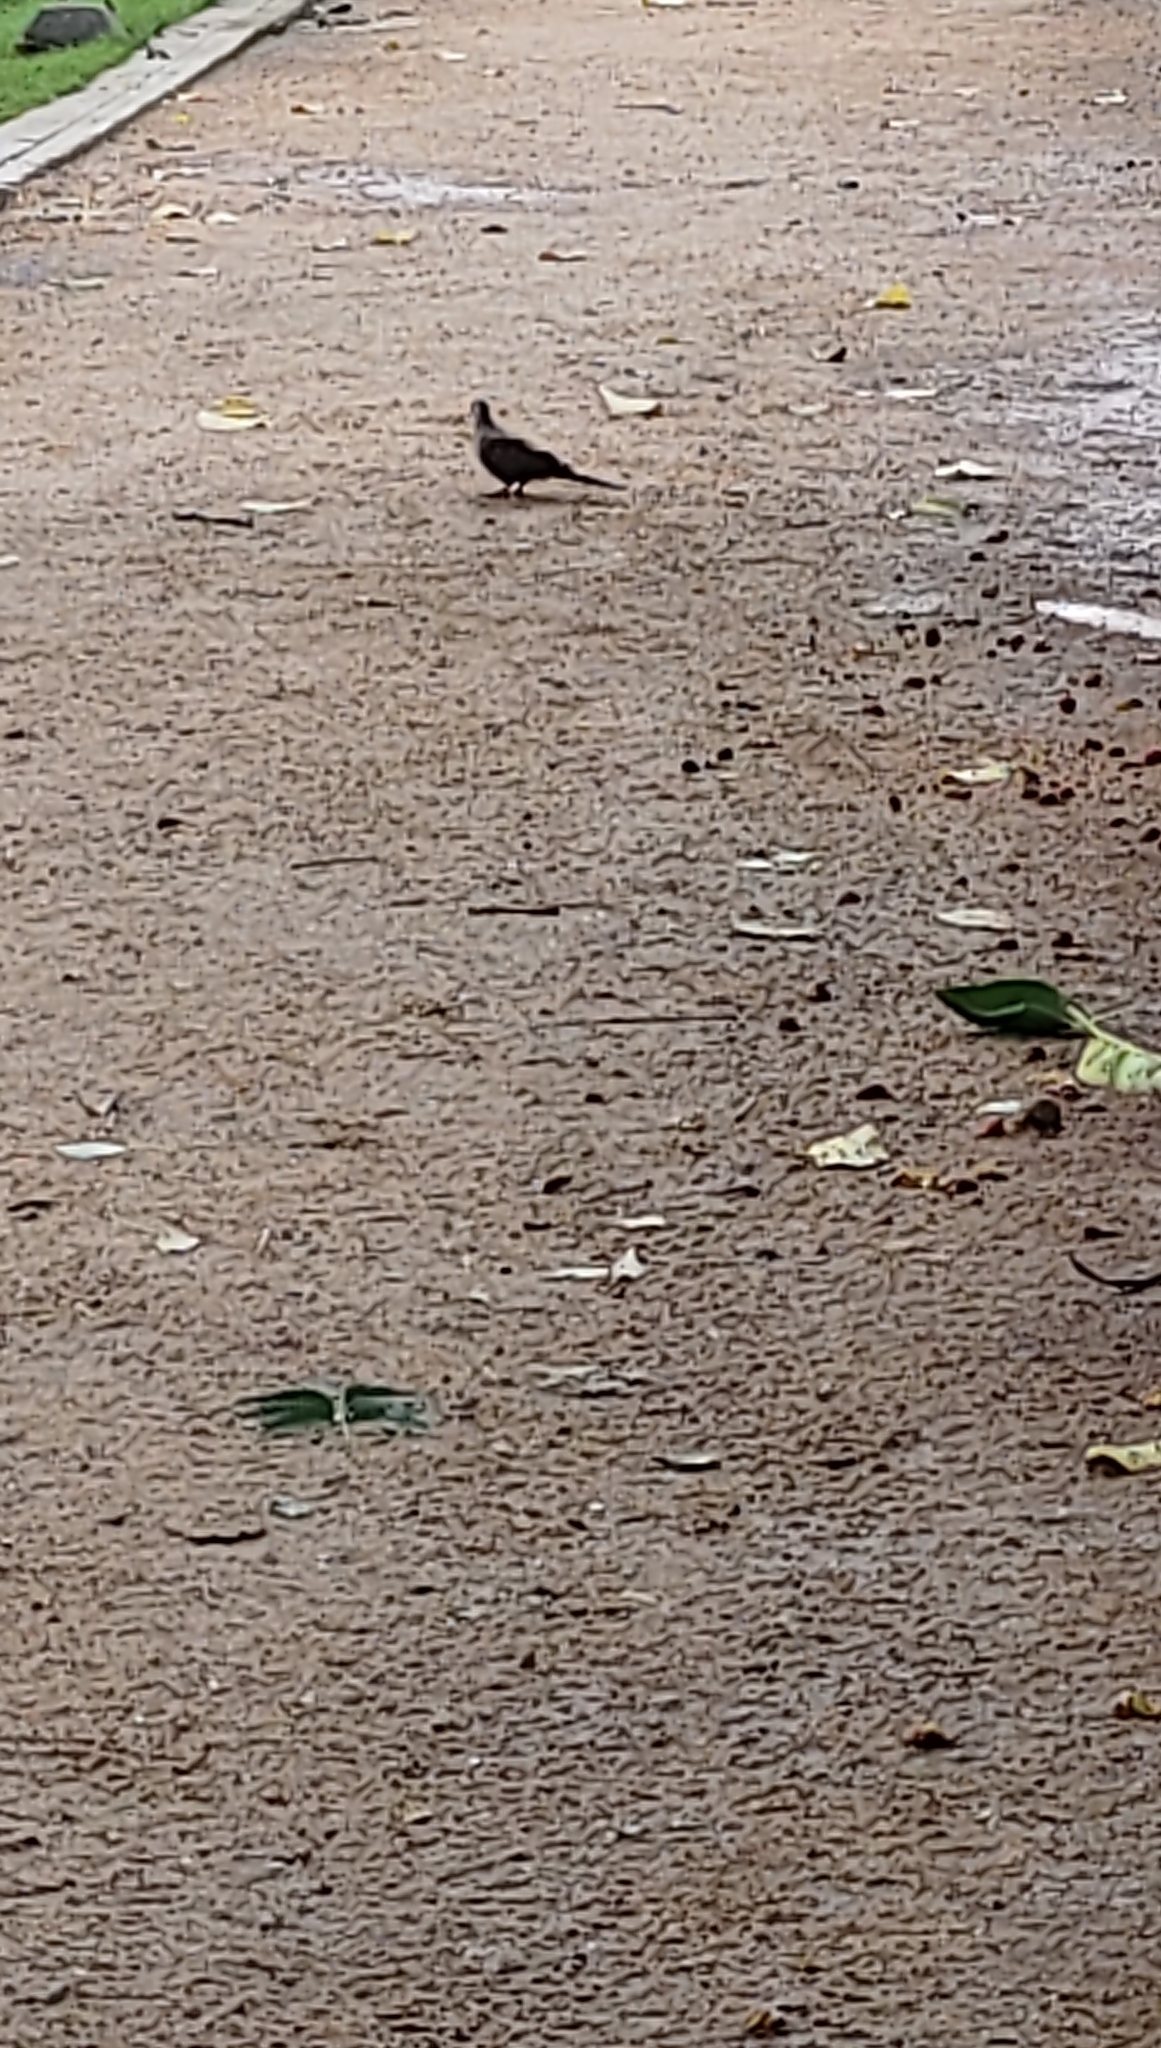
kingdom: Animalia
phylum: Chordata
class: Aves
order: Columbiformes
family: Columbidae
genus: Spilopelia
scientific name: Spilopelia chinensis
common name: Spotted dove
